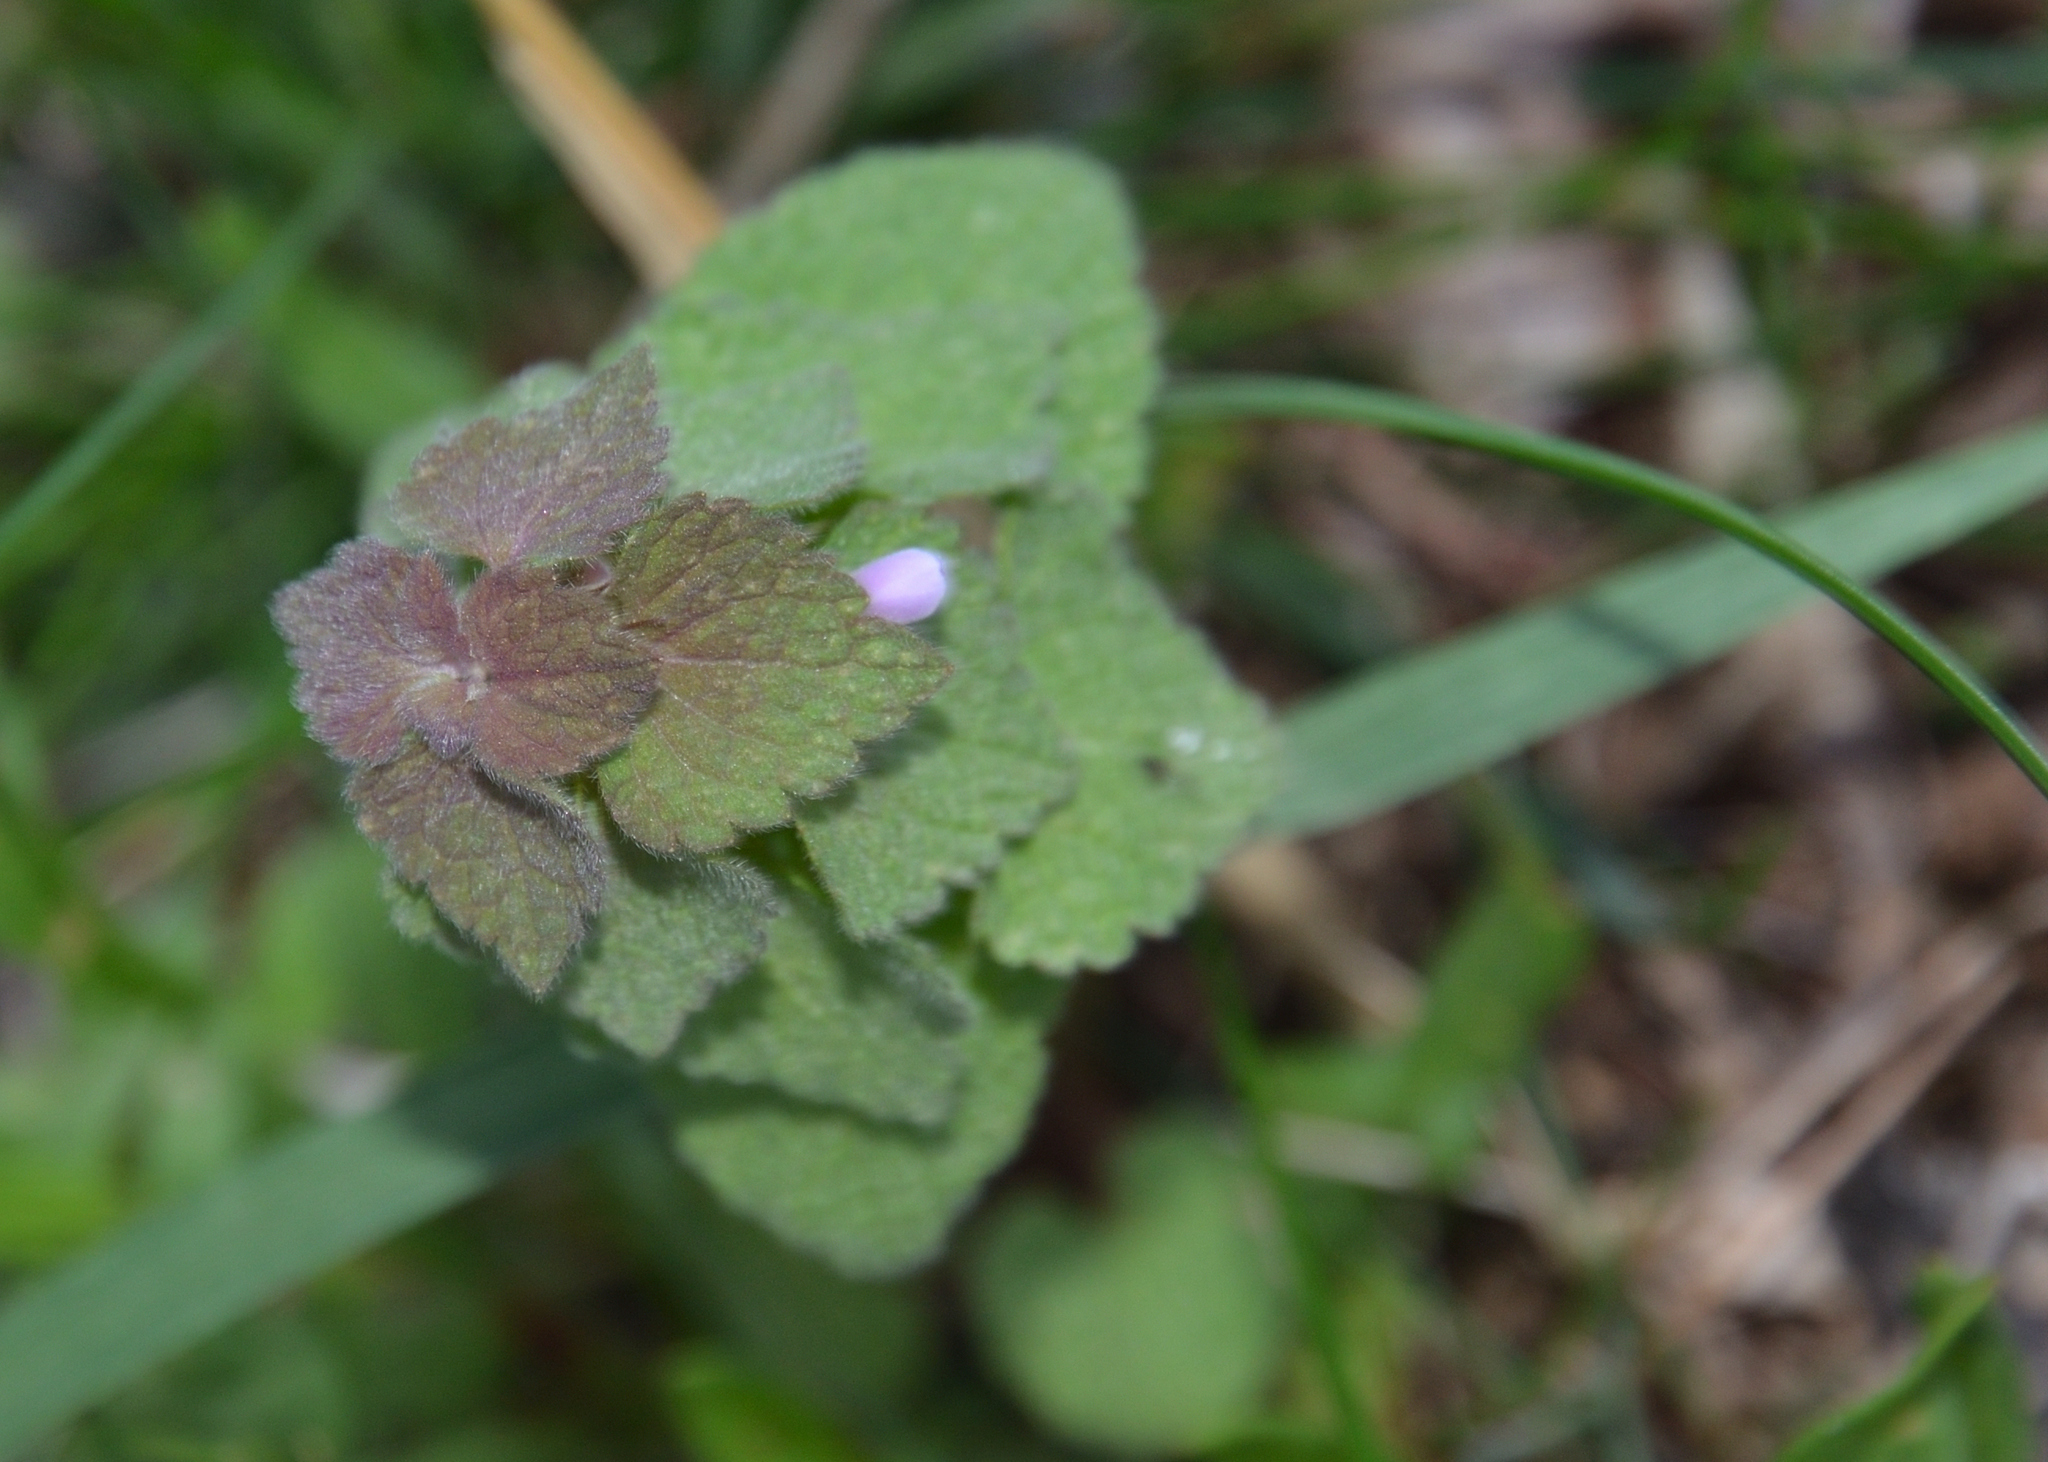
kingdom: Plantae
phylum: Tracheophyta
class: Magnoliopsida
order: Lamiales
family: Lamiaceae
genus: Lamium
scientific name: Lamium purpureum
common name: Red dead-nettle
